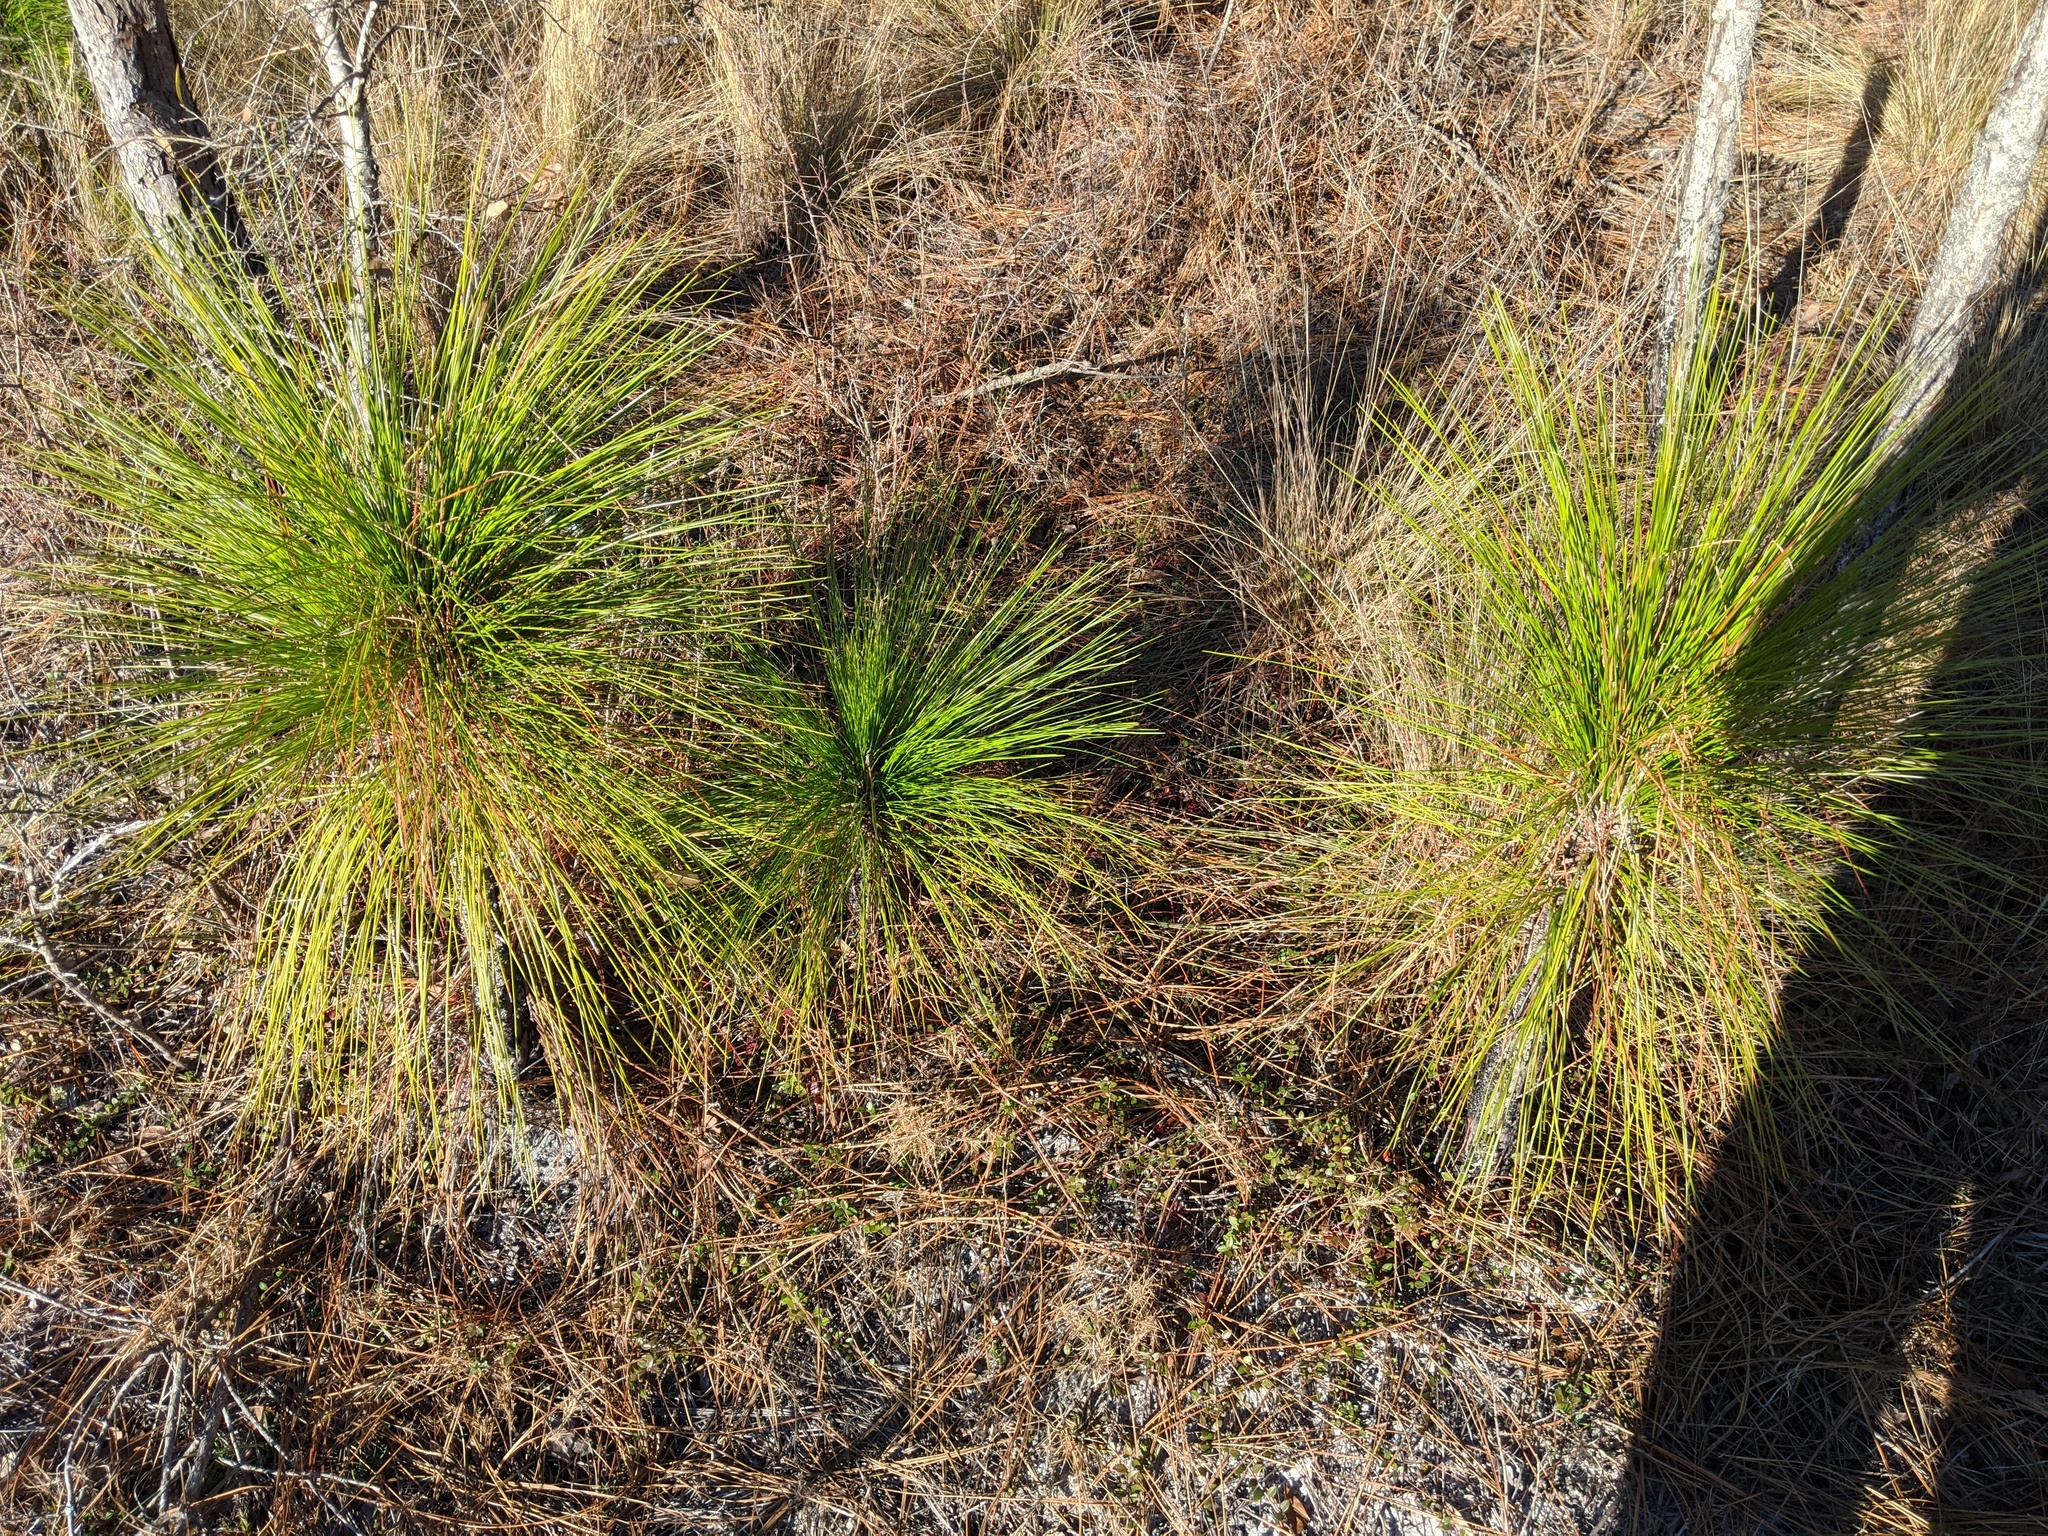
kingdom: Plantae
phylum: Tracheophyta
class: Pinopsida
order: Pinales
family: Pinaceae
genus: Pinus
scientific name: Pinus palustris
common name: Longleaf pine
